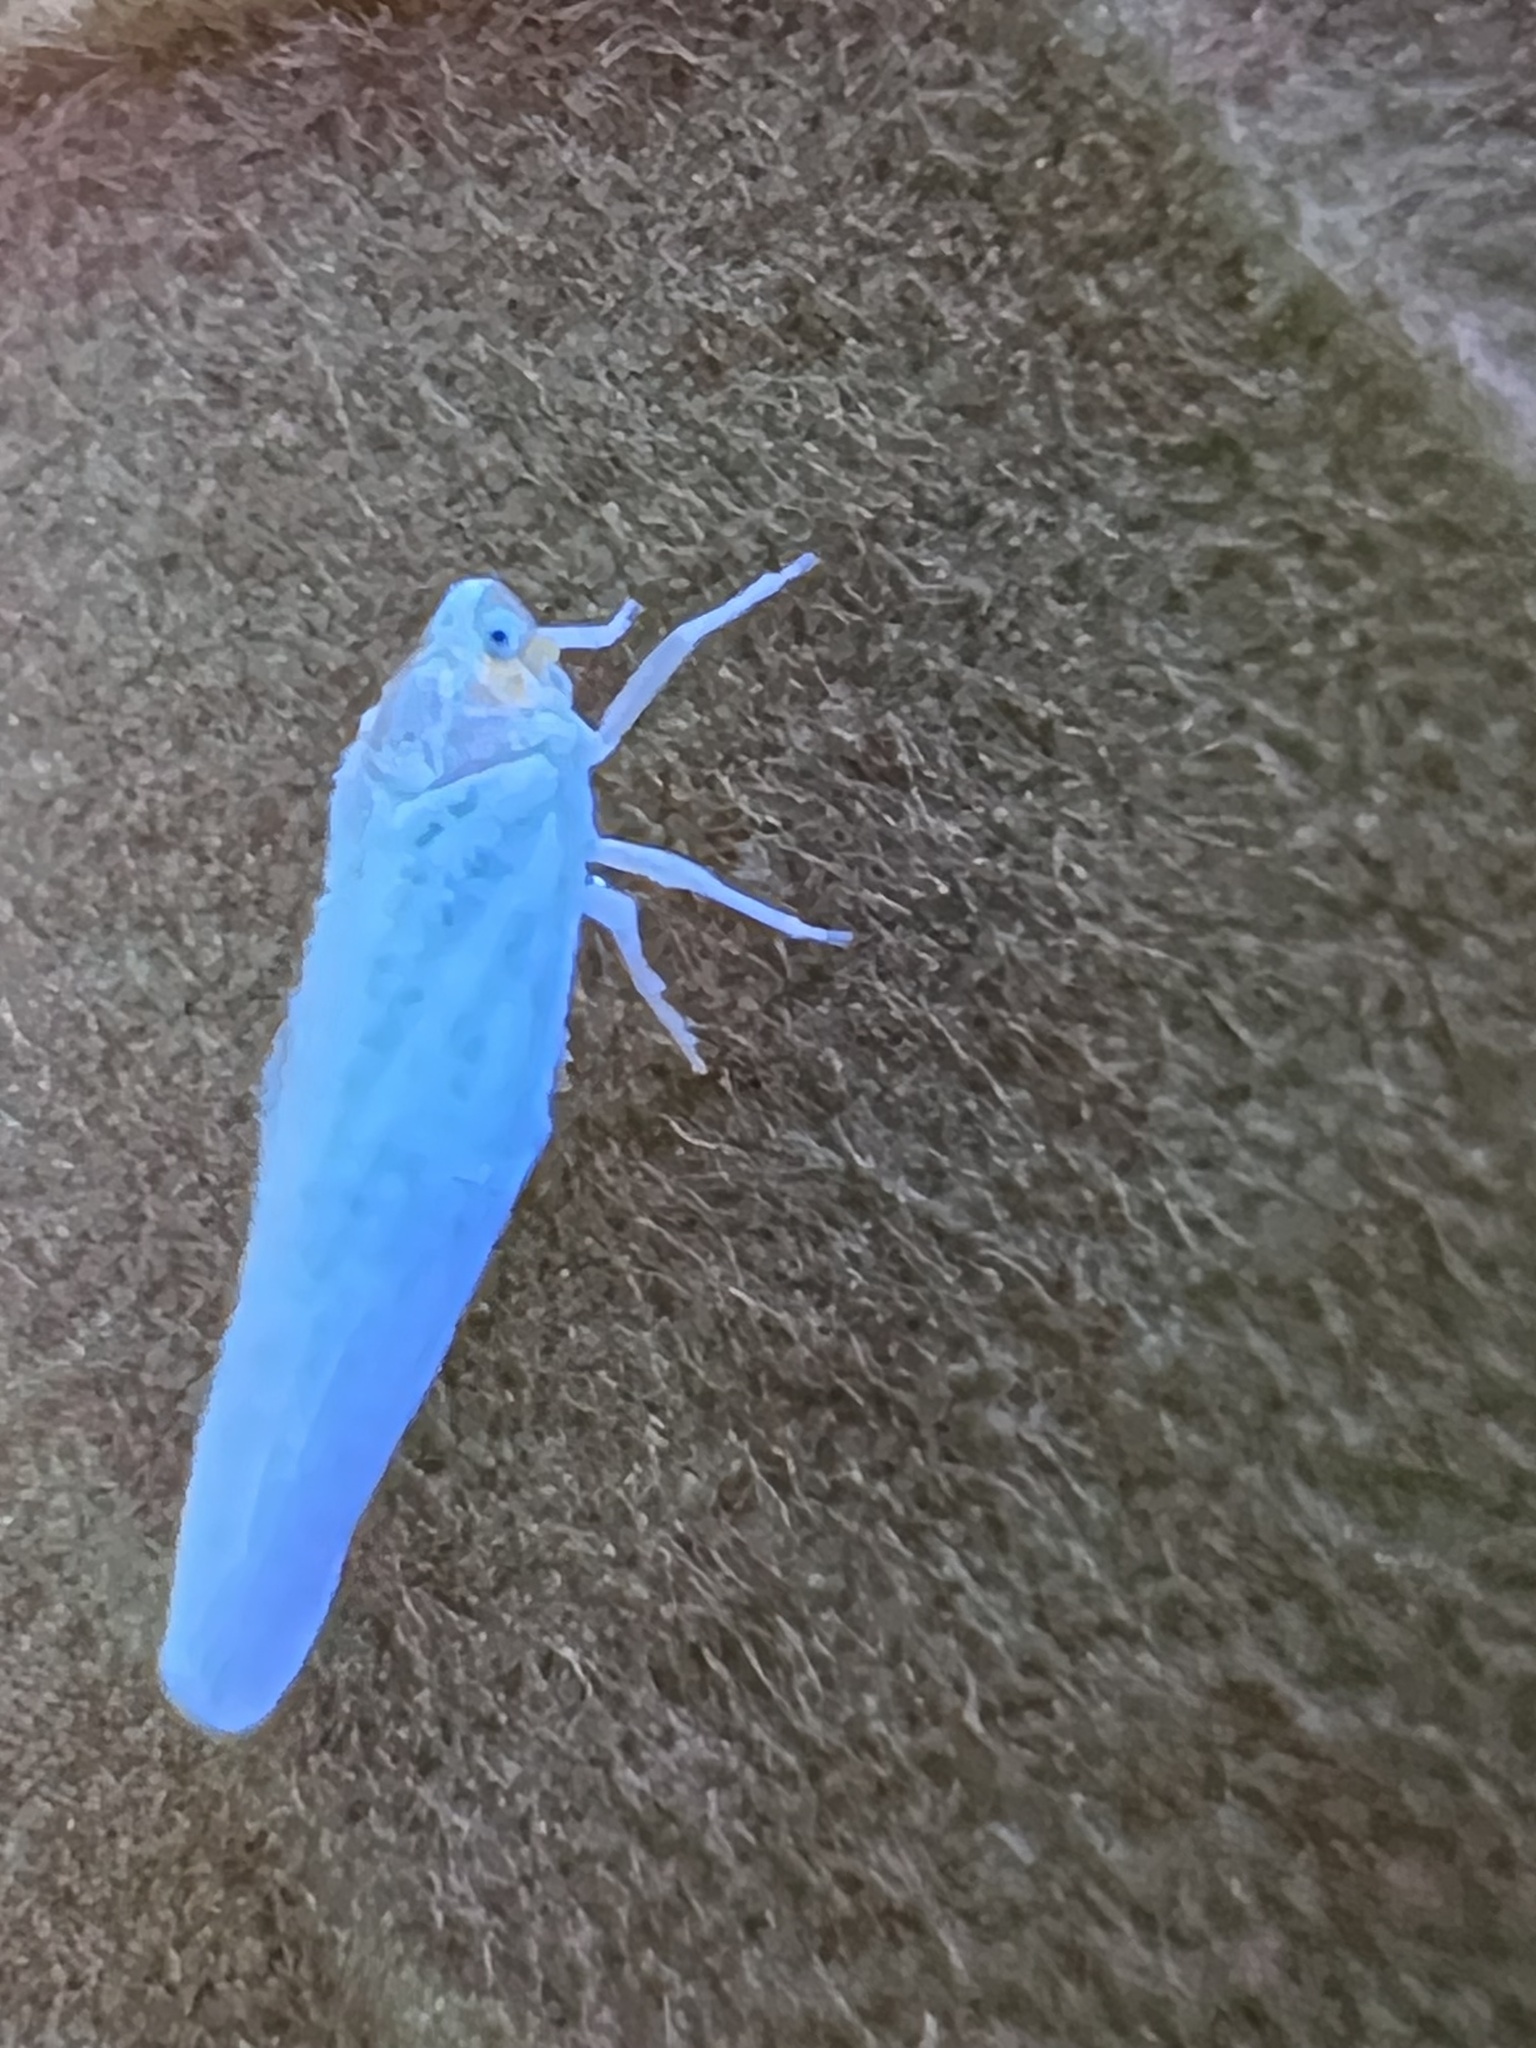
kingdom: Animalia
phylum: Arthropoda
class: Insecta
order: Hemiptera
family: Derbidae
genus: Neocenchrea
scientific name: Neocenchrea heidemanni
